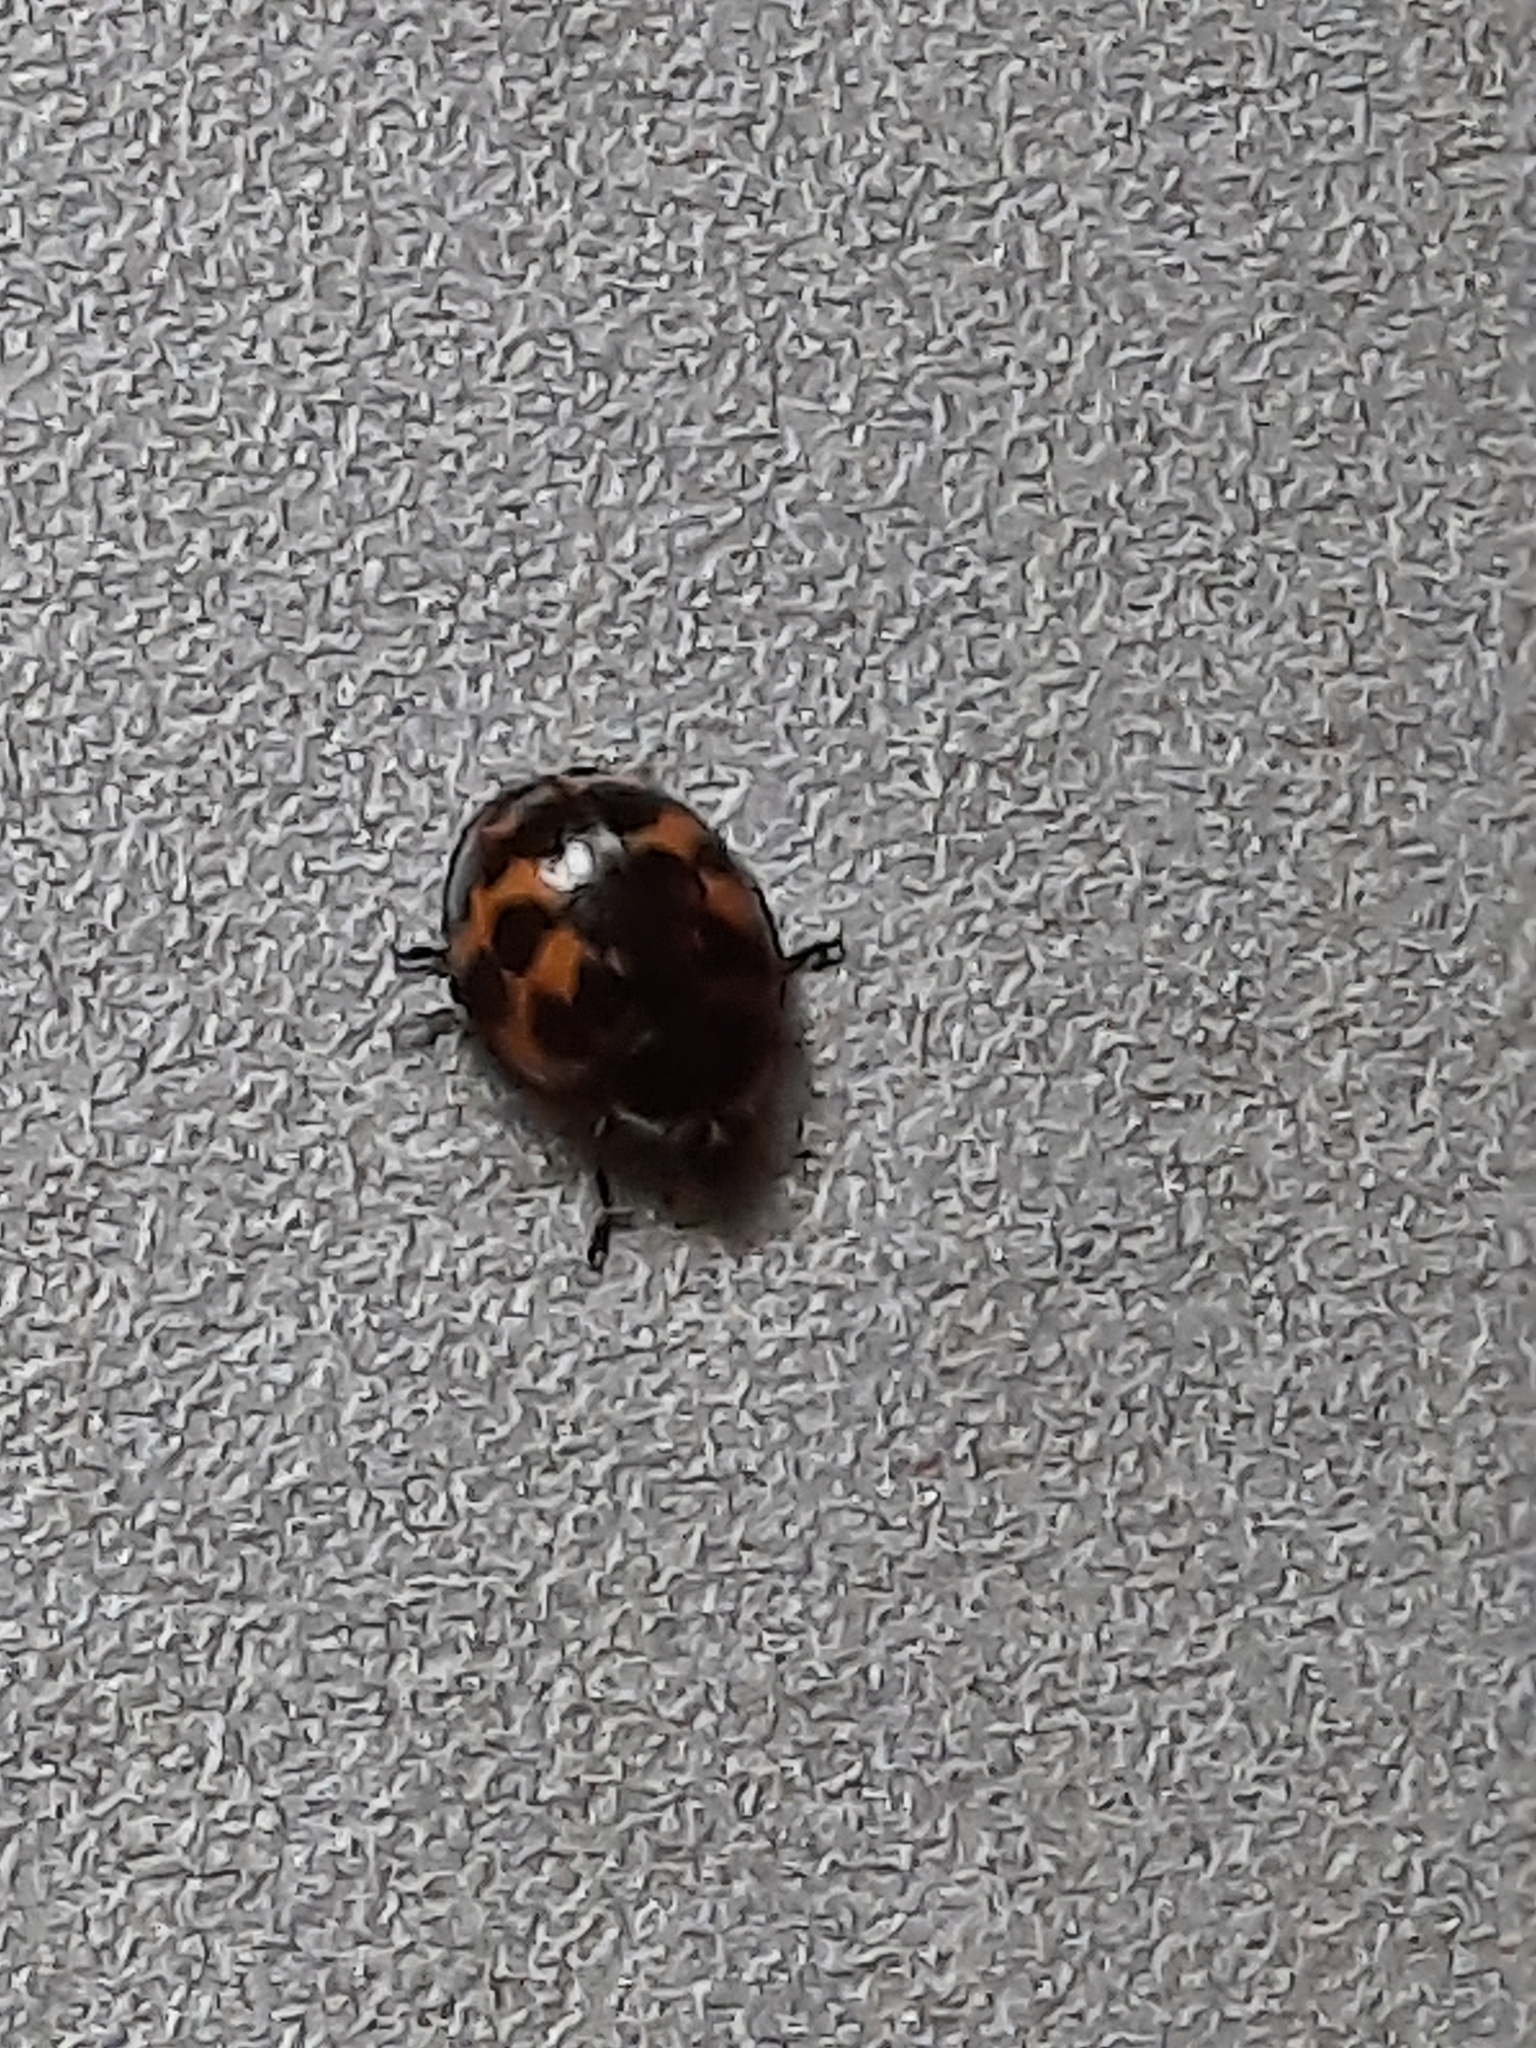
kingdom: Animalia
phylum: Arthropoda
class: Insecta
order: Coleoptera
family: Coccinellidae
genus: Harmonia
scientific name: Harmonia axyridis
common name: Harlequin ladybird
